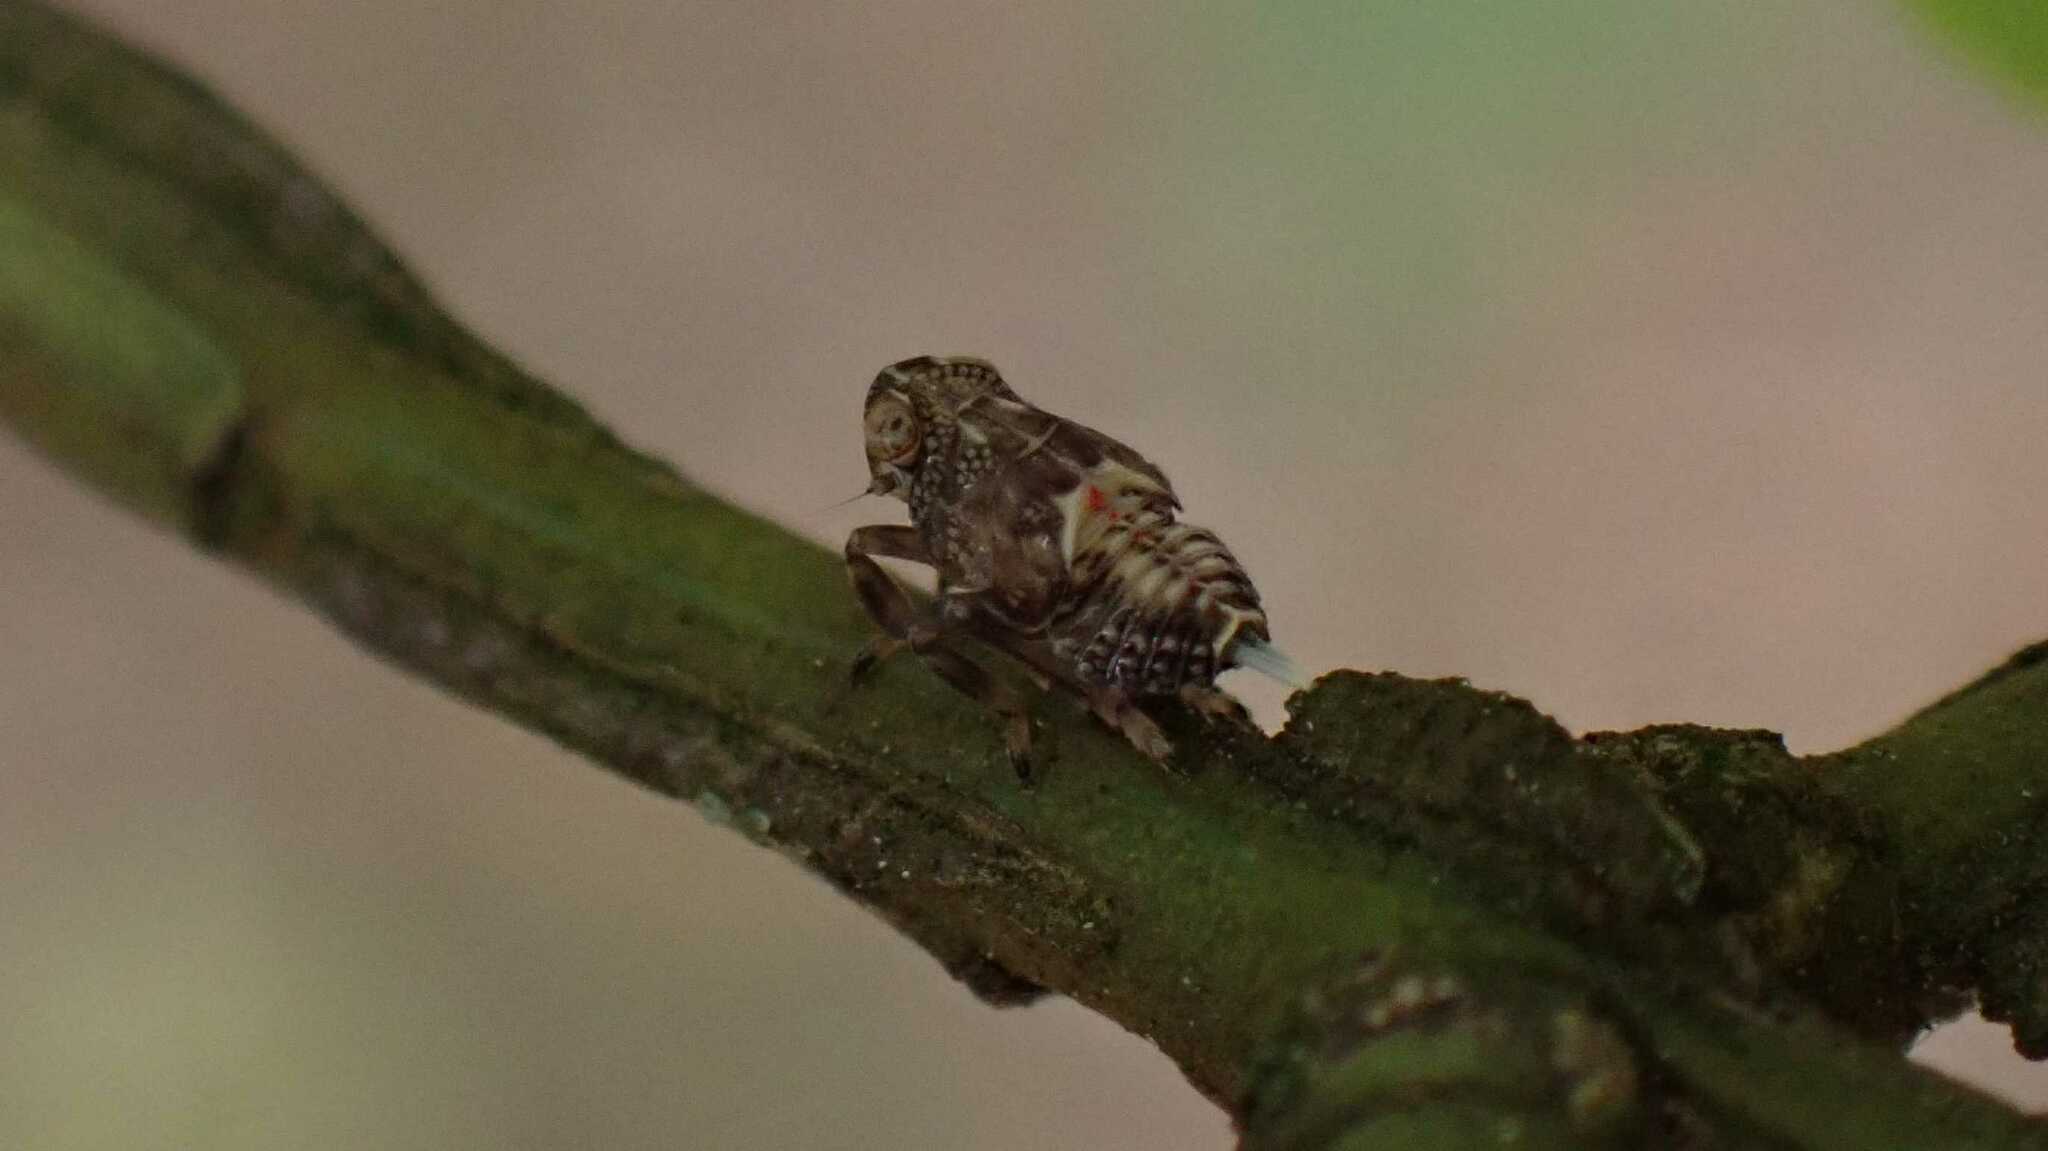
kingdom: Animalia
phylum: Arthropoda
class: Insecta
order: Hemiptera
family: Issidae
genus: Issus
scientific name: Issus coleoptratus
